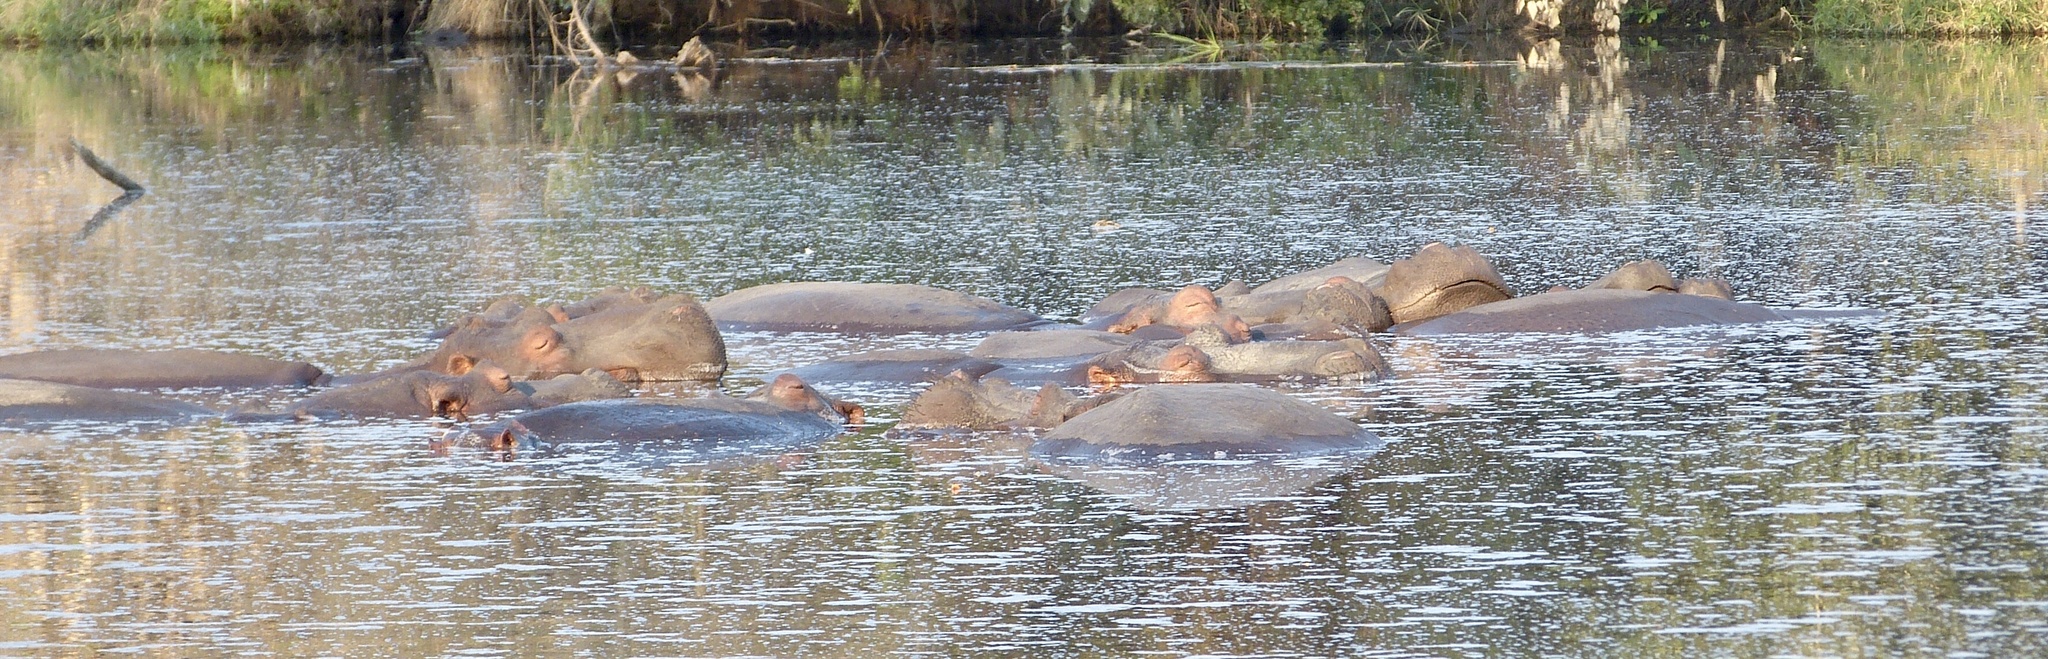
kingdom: Animalia
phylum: Chordata
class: Mammalia
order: Artiodactyla
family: Hippopotamidae
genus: Hippopotamus
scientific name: Hippopotamus amphibius
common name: Common hippopotamus
